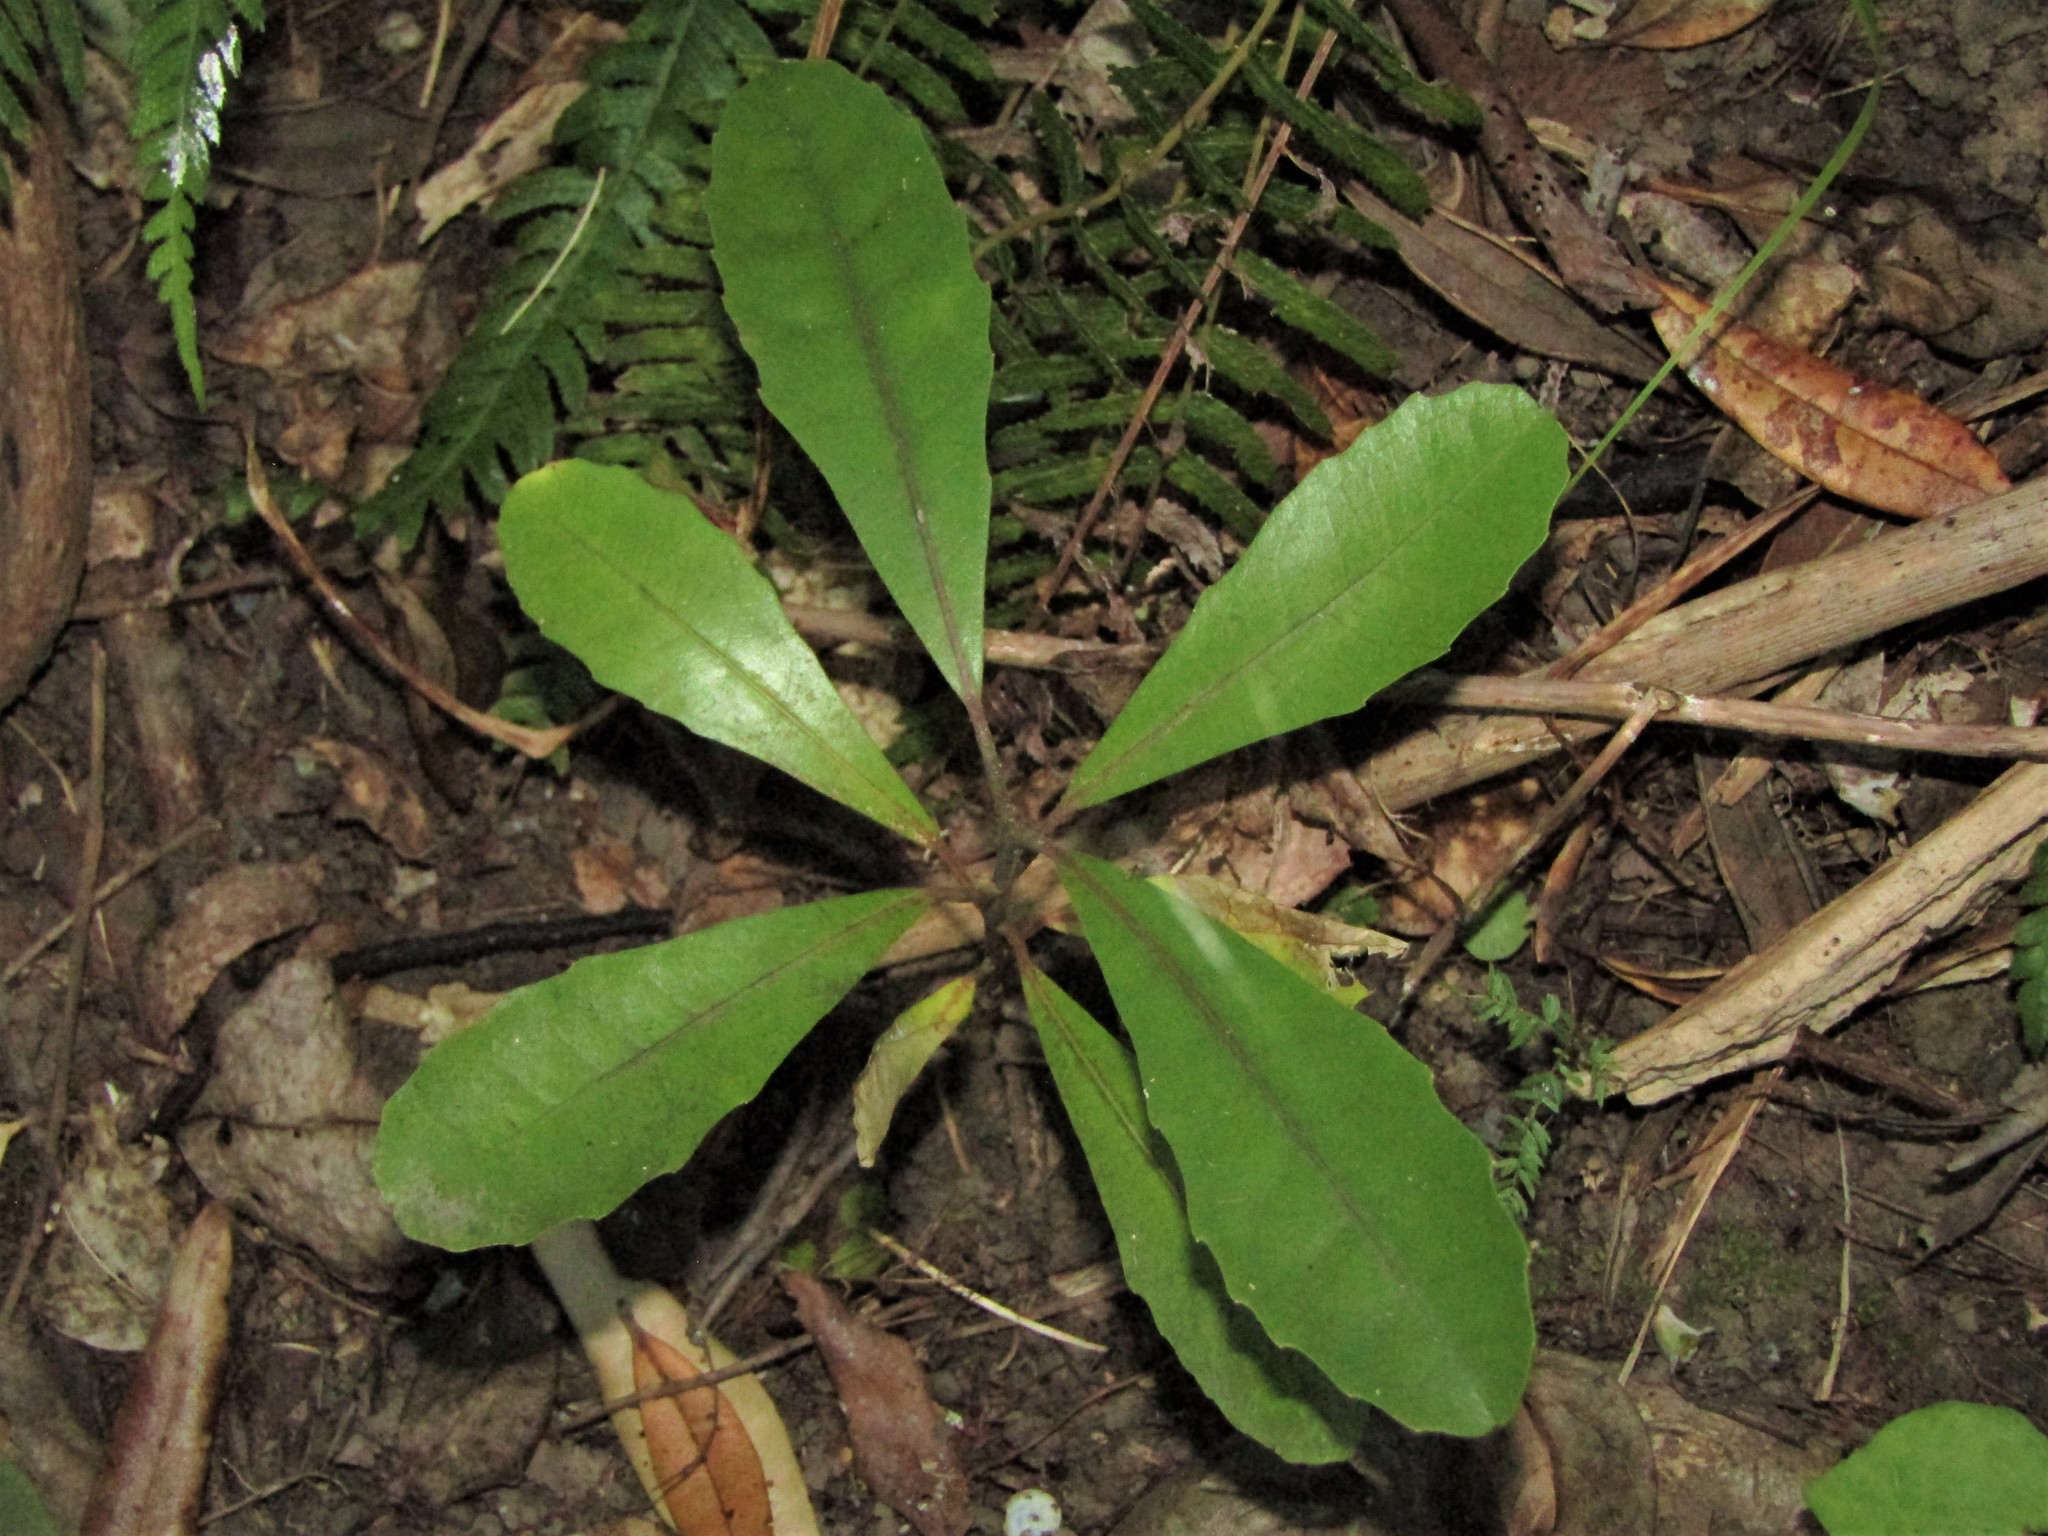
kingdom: Plantae
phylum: Tracheophyta
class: Magnoliopsida
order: Laurales
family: Monimiaceae
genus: Hedycarya
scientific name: Hedycarya arborea
